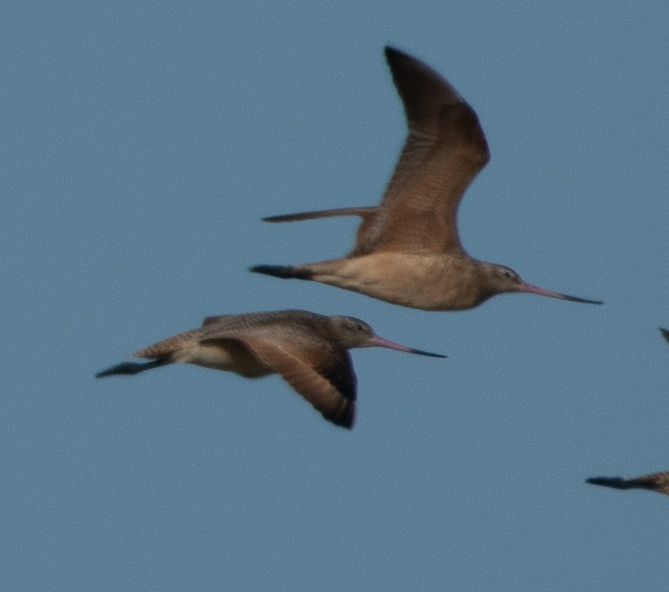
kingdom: Animalia
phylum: Chordata
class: Aves
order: Charadriiformes
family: Scolopacidae
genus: Limosa
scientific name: Limosa fedoa
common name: Marbled godwit
